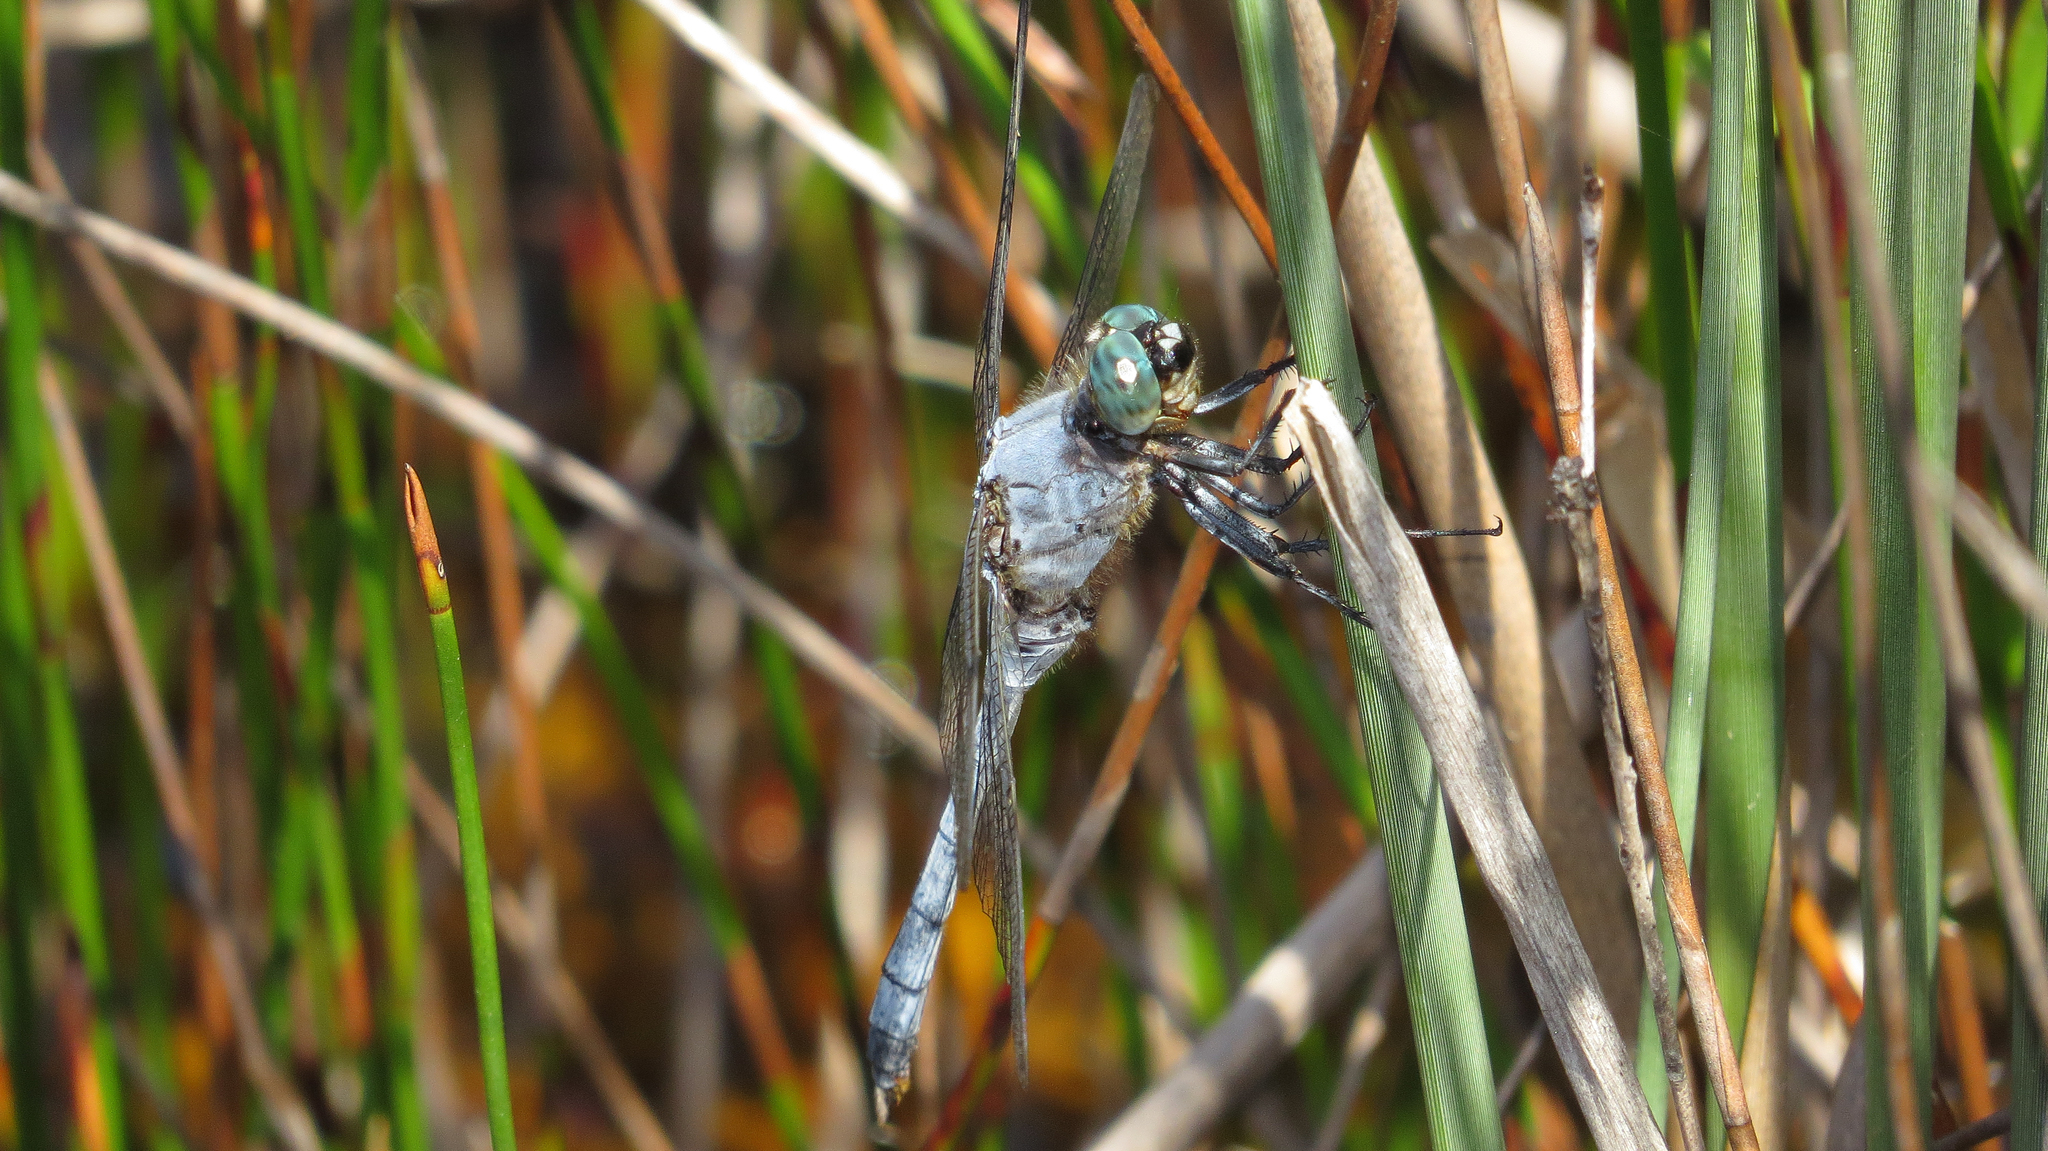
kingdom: Animalia
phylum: Arthropoda
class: Insecta
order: Odonata
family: Libellulidae
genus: Orthetrum
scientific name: Orthetrum boumiera
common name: Brownwater skimmer
